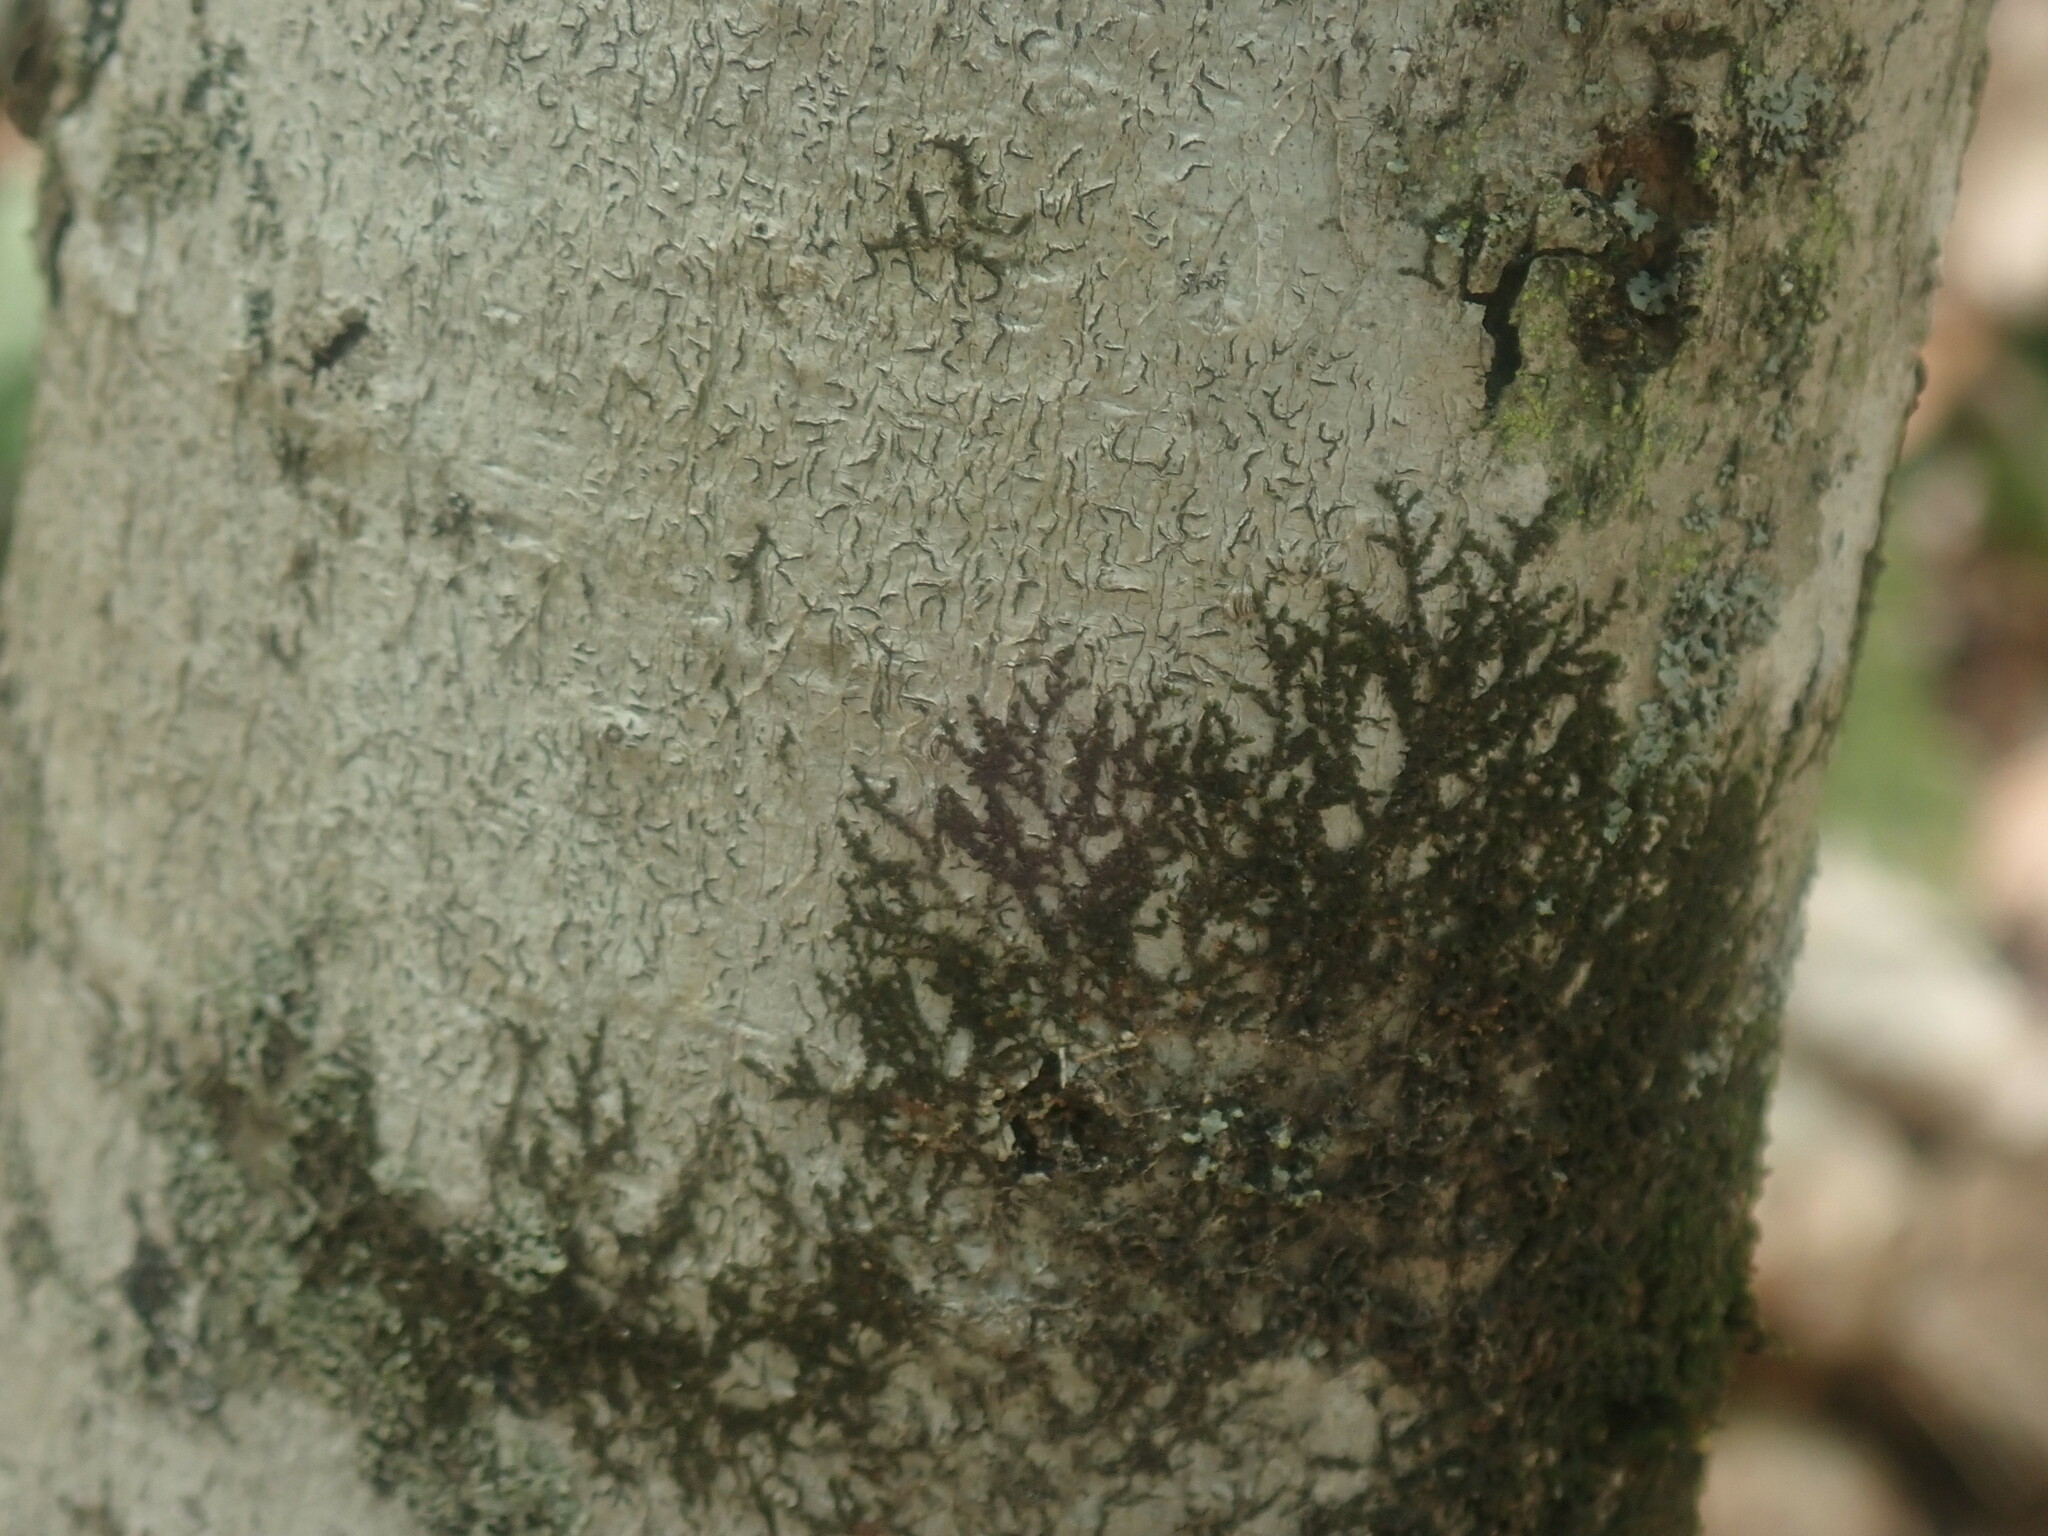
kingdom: Plantae
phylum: Marchantiophyta
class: Jungermanniopsida
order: Porellales
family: Frullaniaceae
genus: Frullania
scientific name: Frullania
